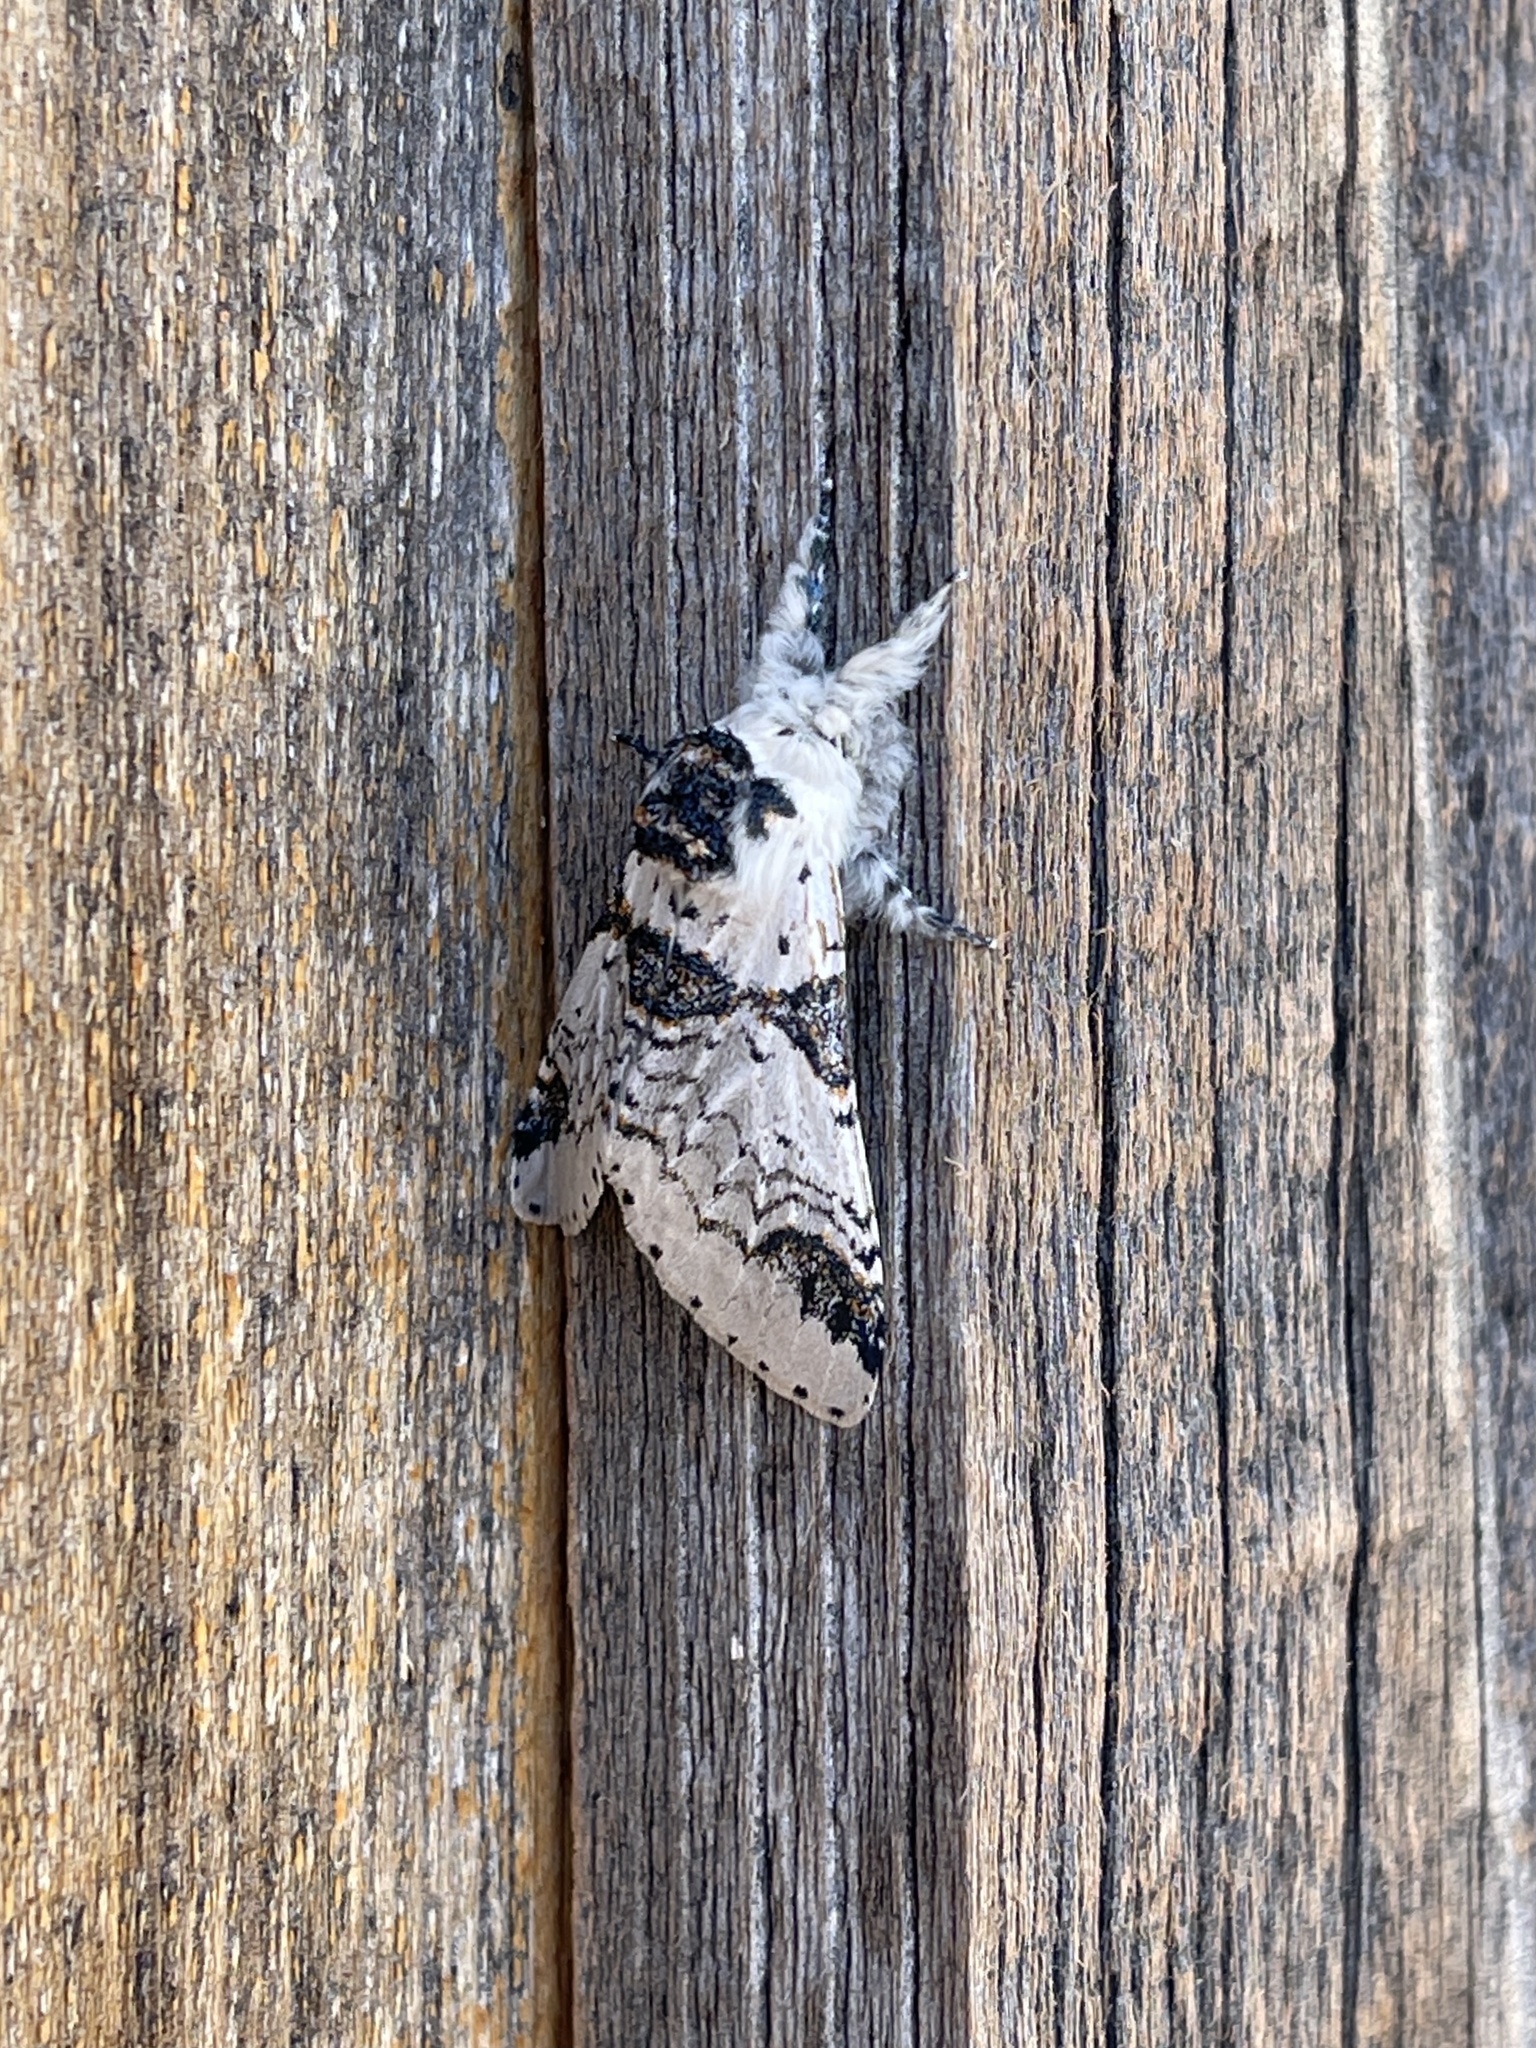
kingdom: Animalia
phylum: Arthropoda
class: Insecta
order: Lepidoptera
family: Notodontidae
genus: Furcula
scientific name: Furcula scolopendrina
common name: Zigzag furcula moth
